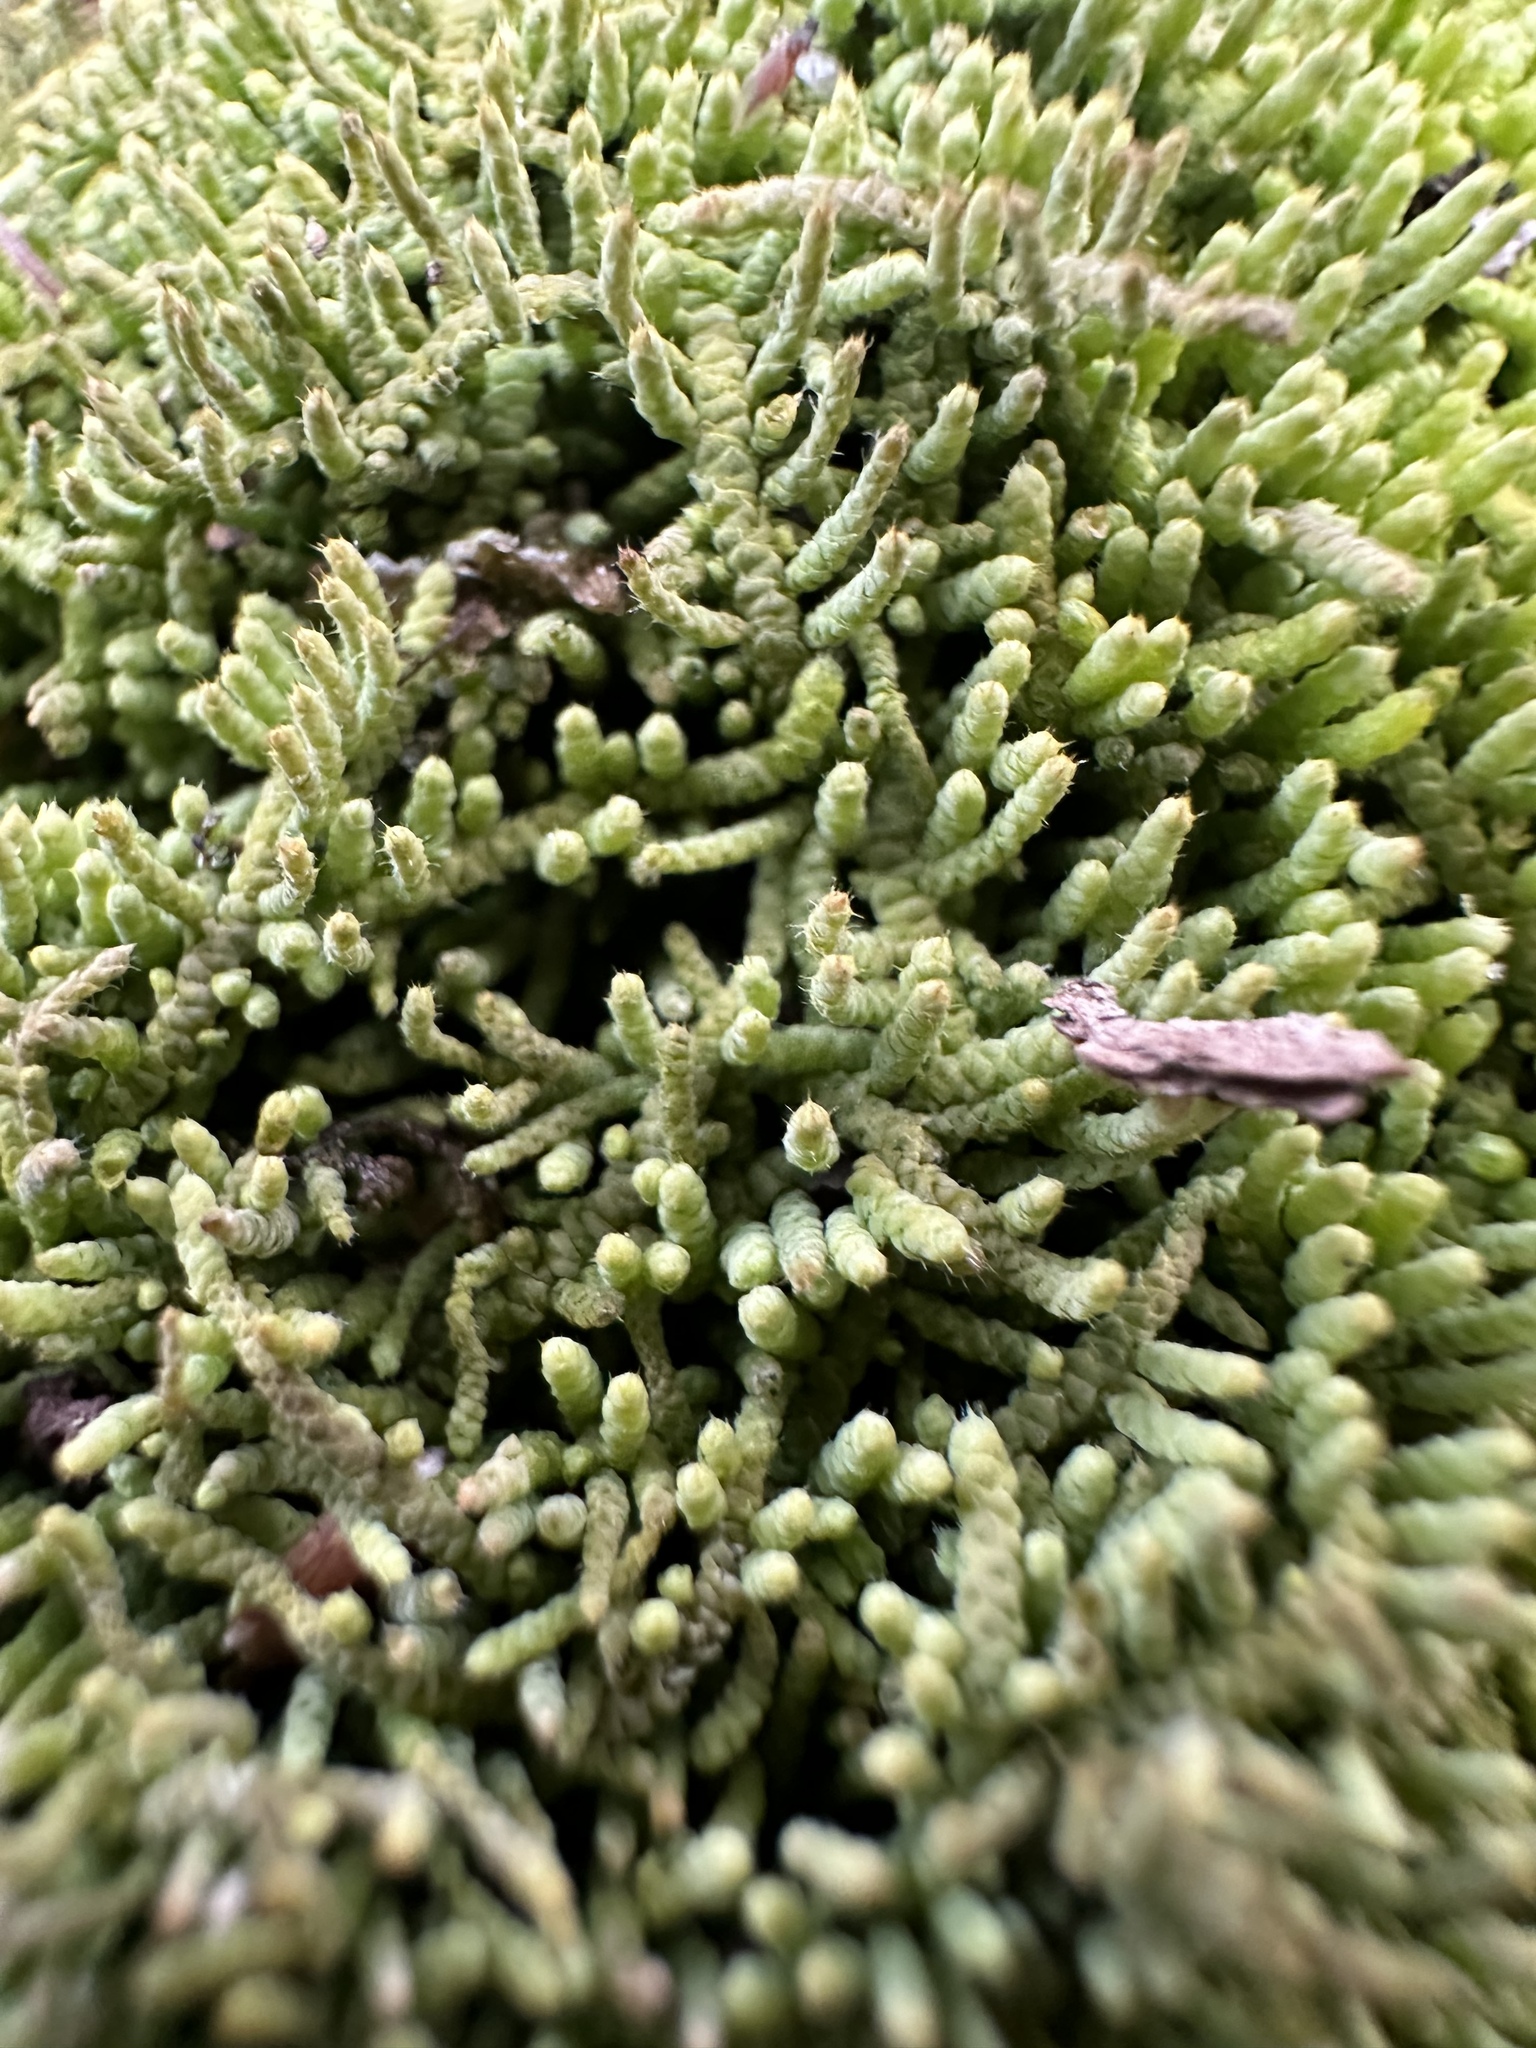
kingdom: Plantae
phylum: Bryophyta
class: Bryopsida
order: Hypnales
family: Theliaceae
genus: Thelia
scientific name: Thelia hirtella
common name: Common thelia
